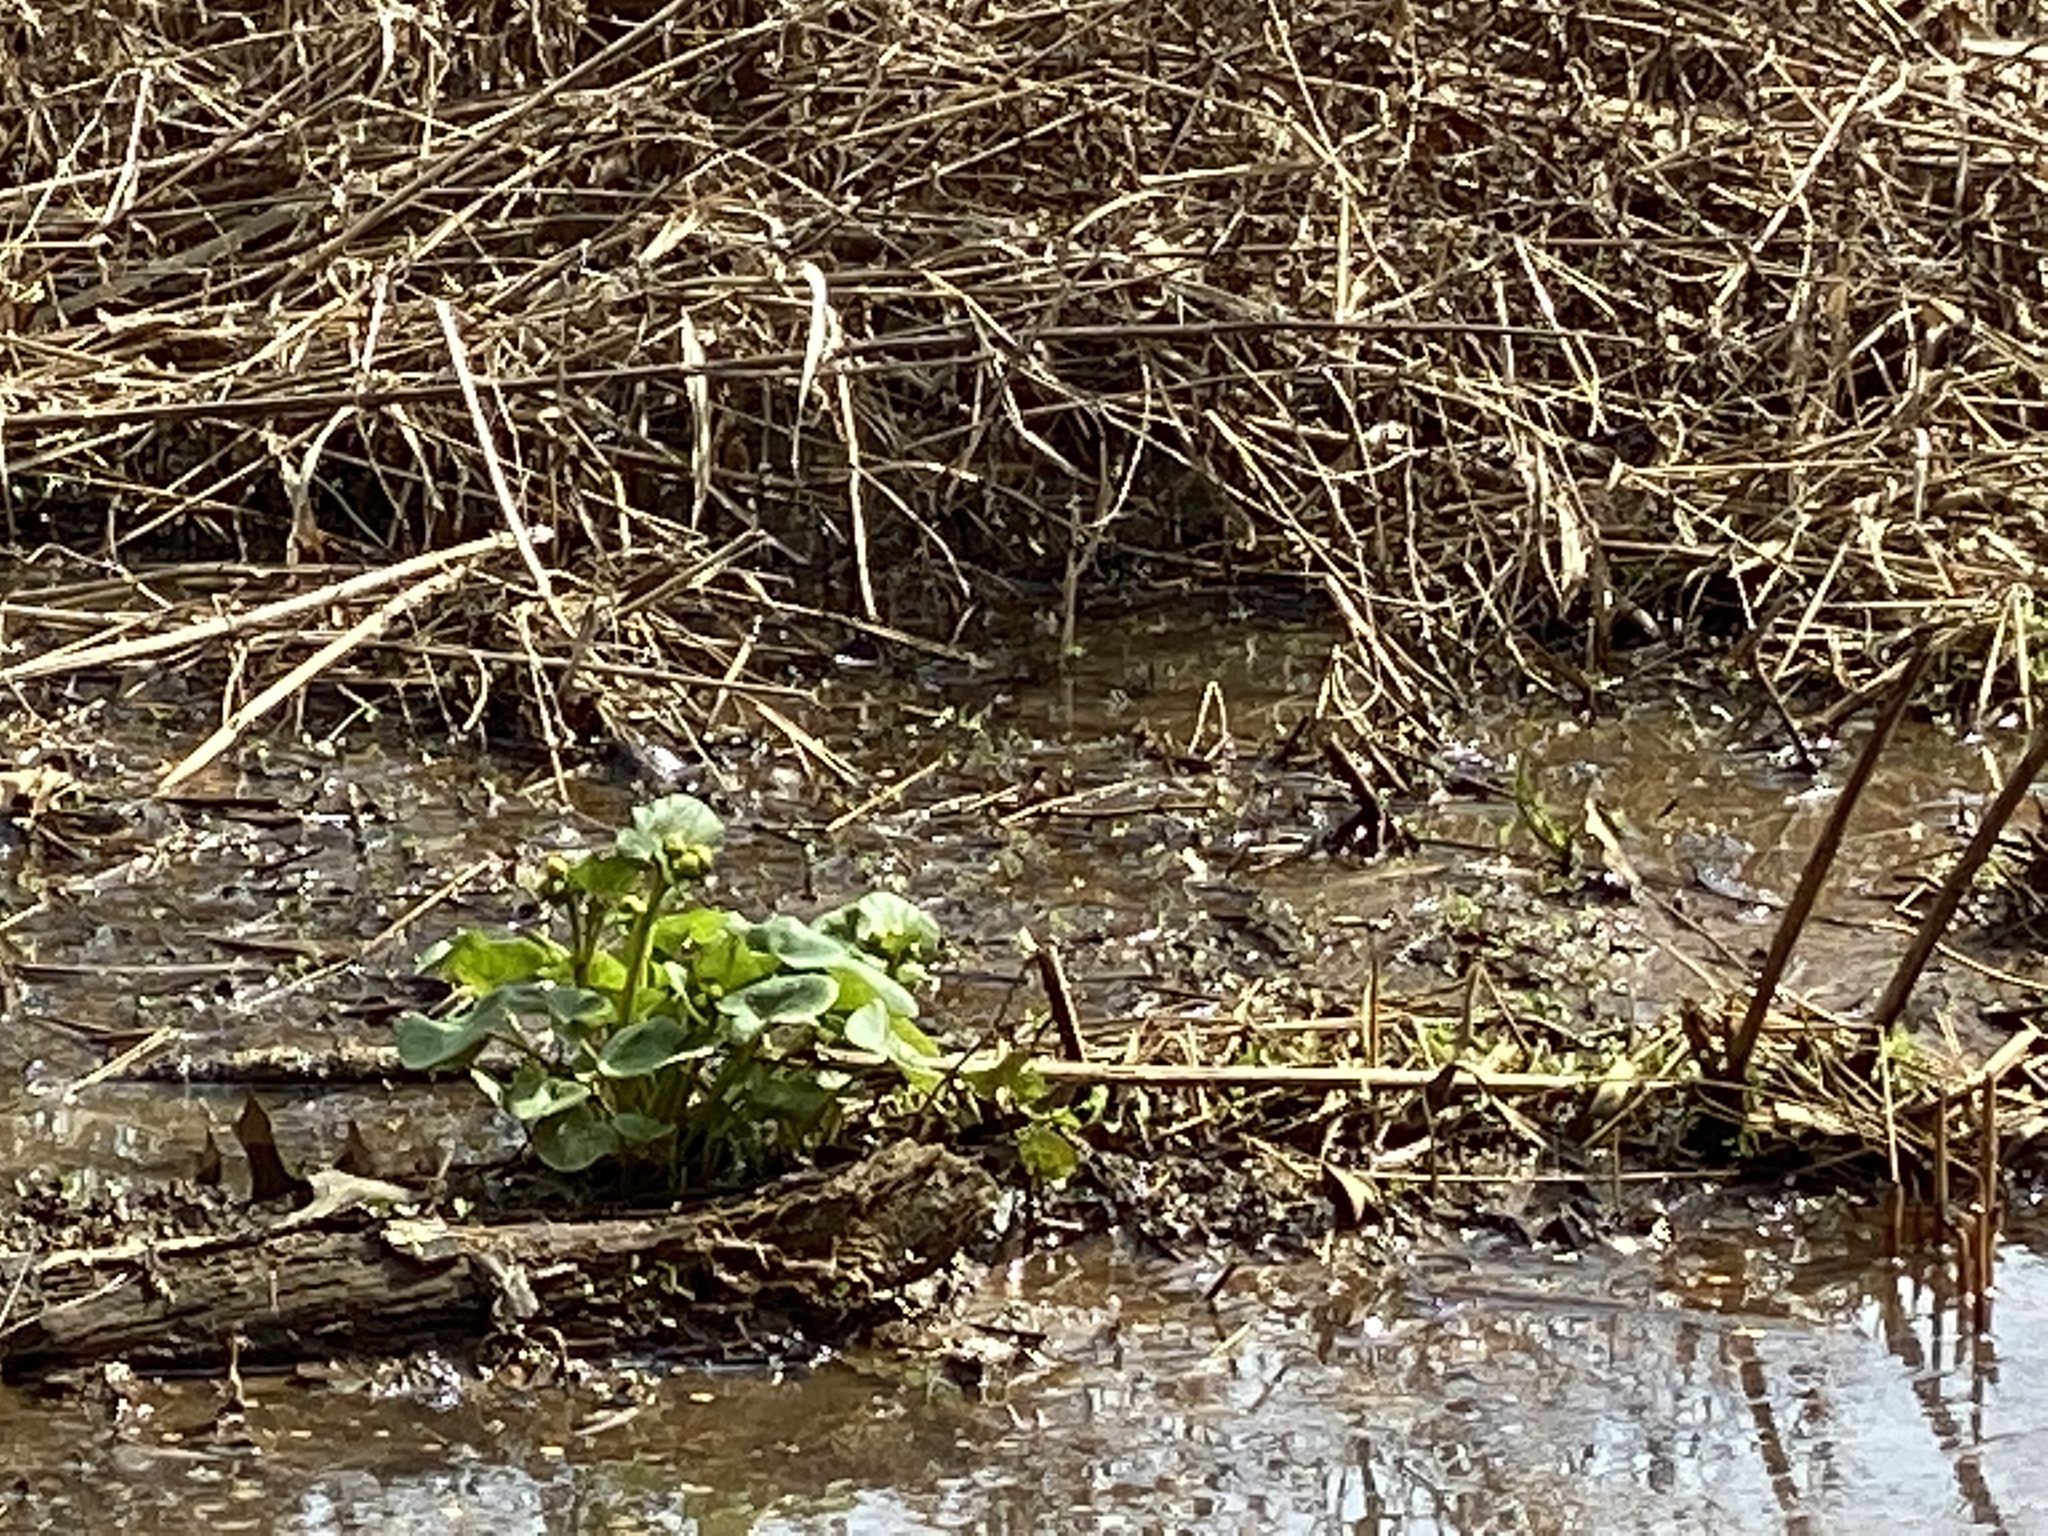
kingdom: Plantae
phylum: Tracheophyta
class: Magnoliopsida
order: Ranunculales
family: Ranunculaceae
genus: Caltha
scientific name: Caltha palustris
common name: Marsh marigold
